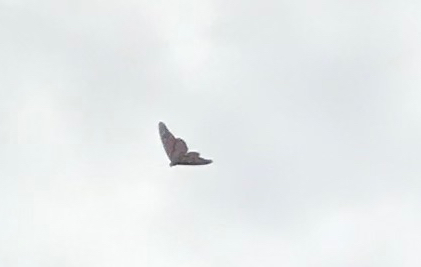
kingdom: Animalia
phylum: Arthropoda
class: Insecta
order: Lepidoptera
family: Nymphalidae
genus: Danaus
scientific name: Danaus plexippus
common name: Monarch
